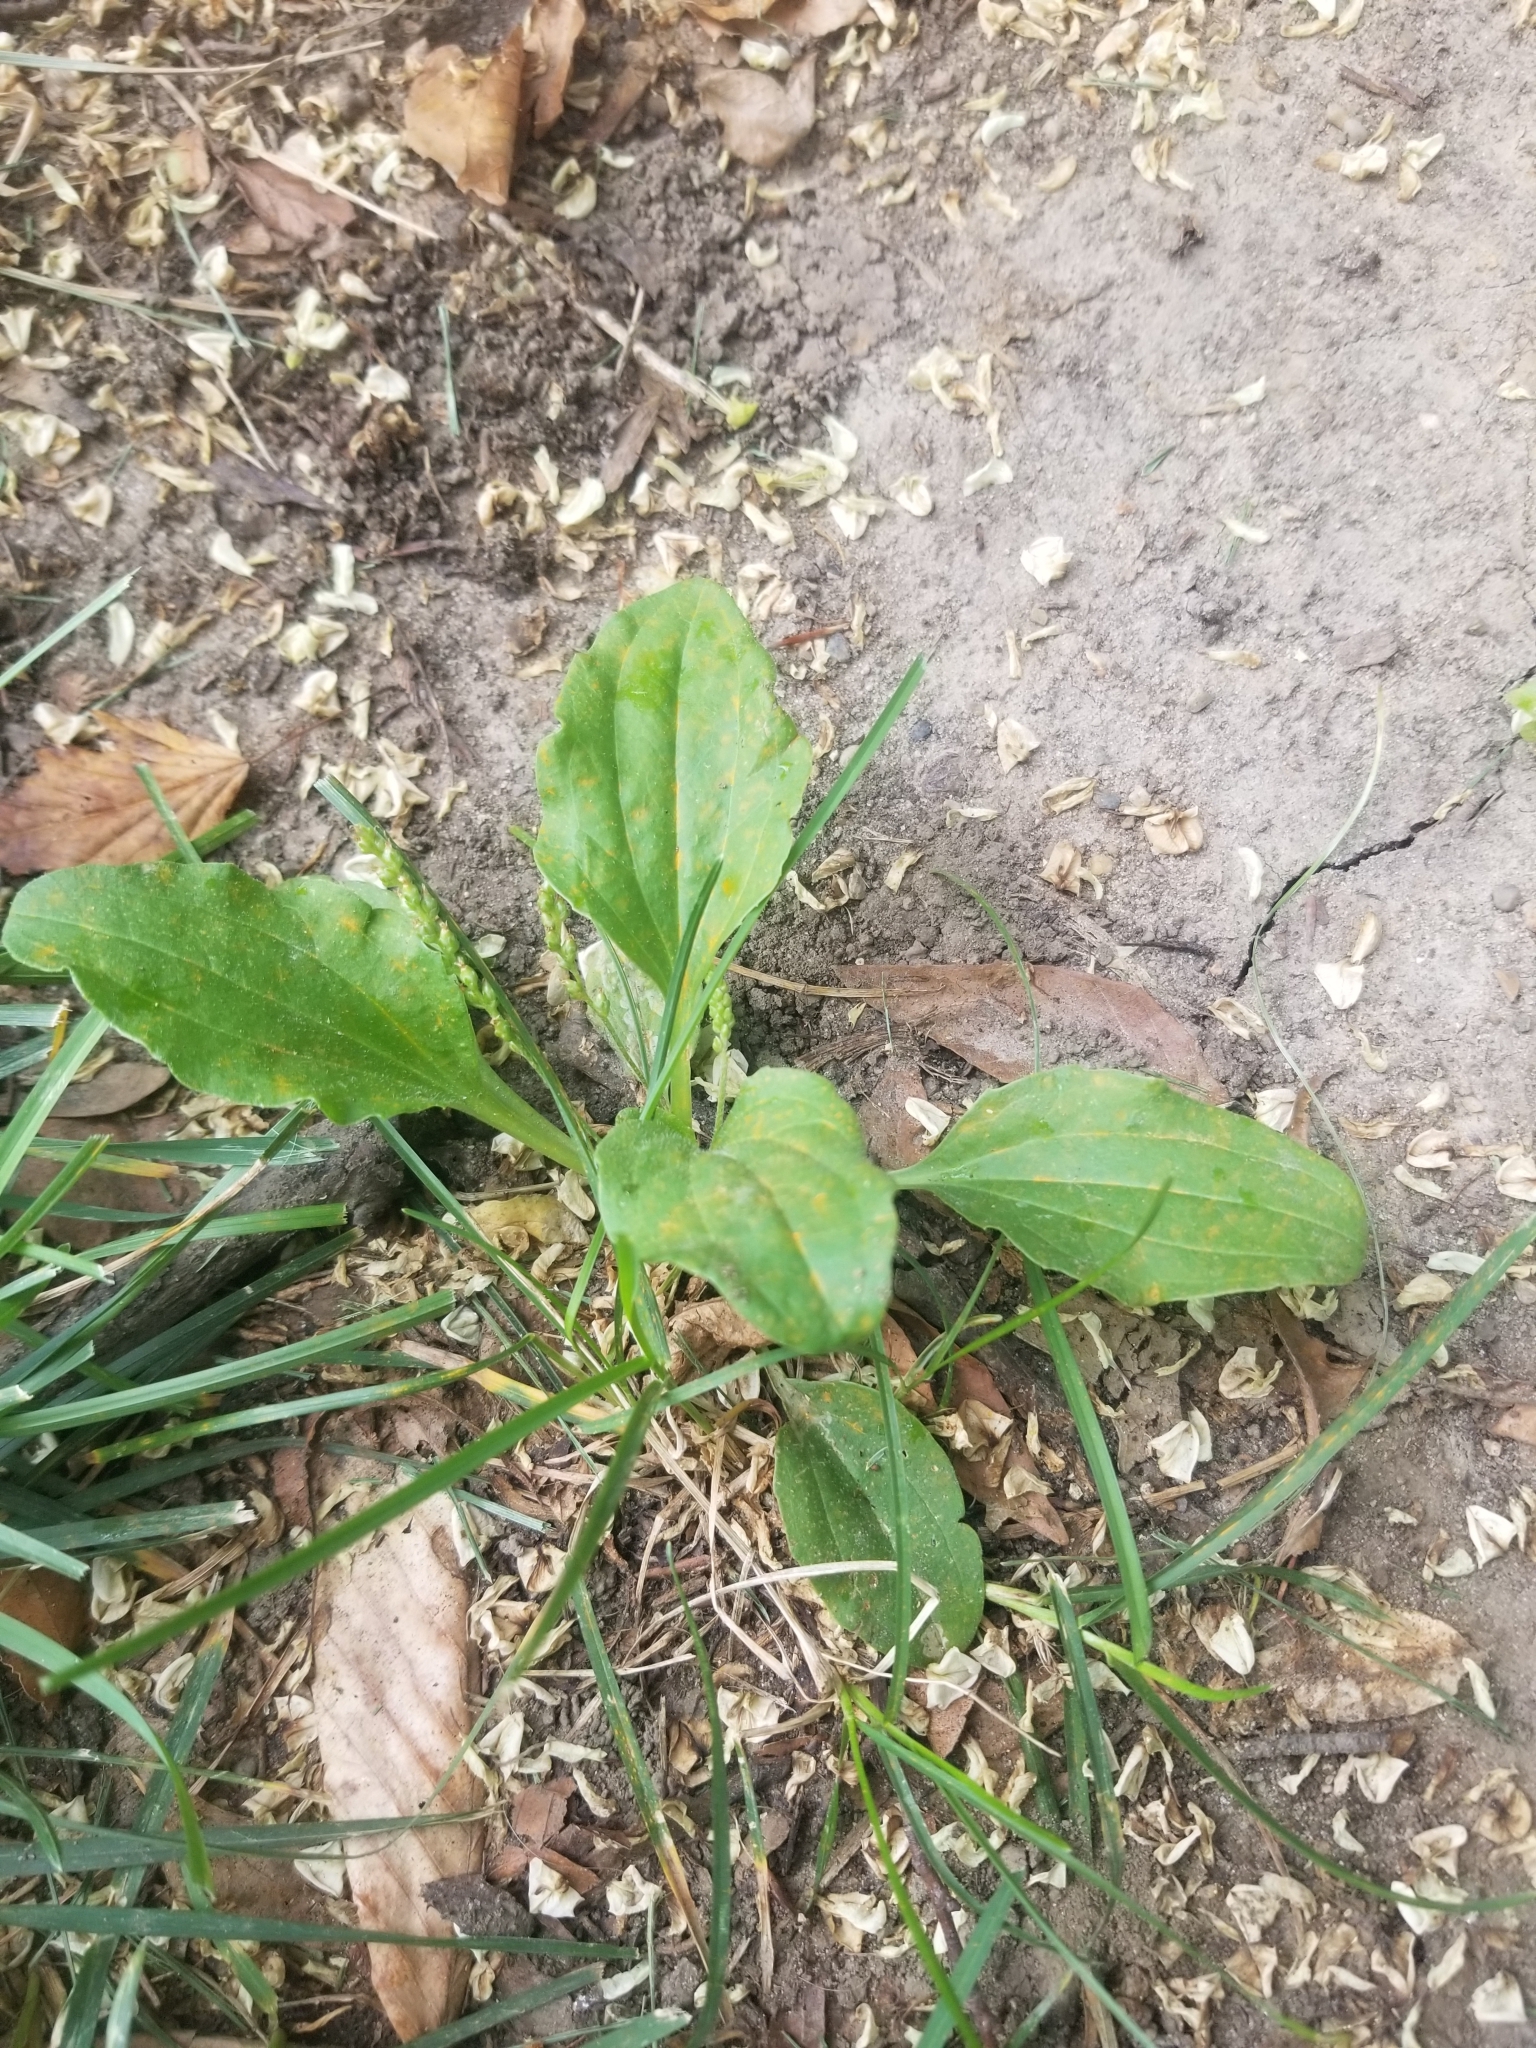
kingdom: Plantae
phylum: Tracheophyta
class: Magnoliopsida
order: Lamiales
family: Plantaginaceae
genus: Plantago
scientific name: Plantago major
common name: Common plantain
